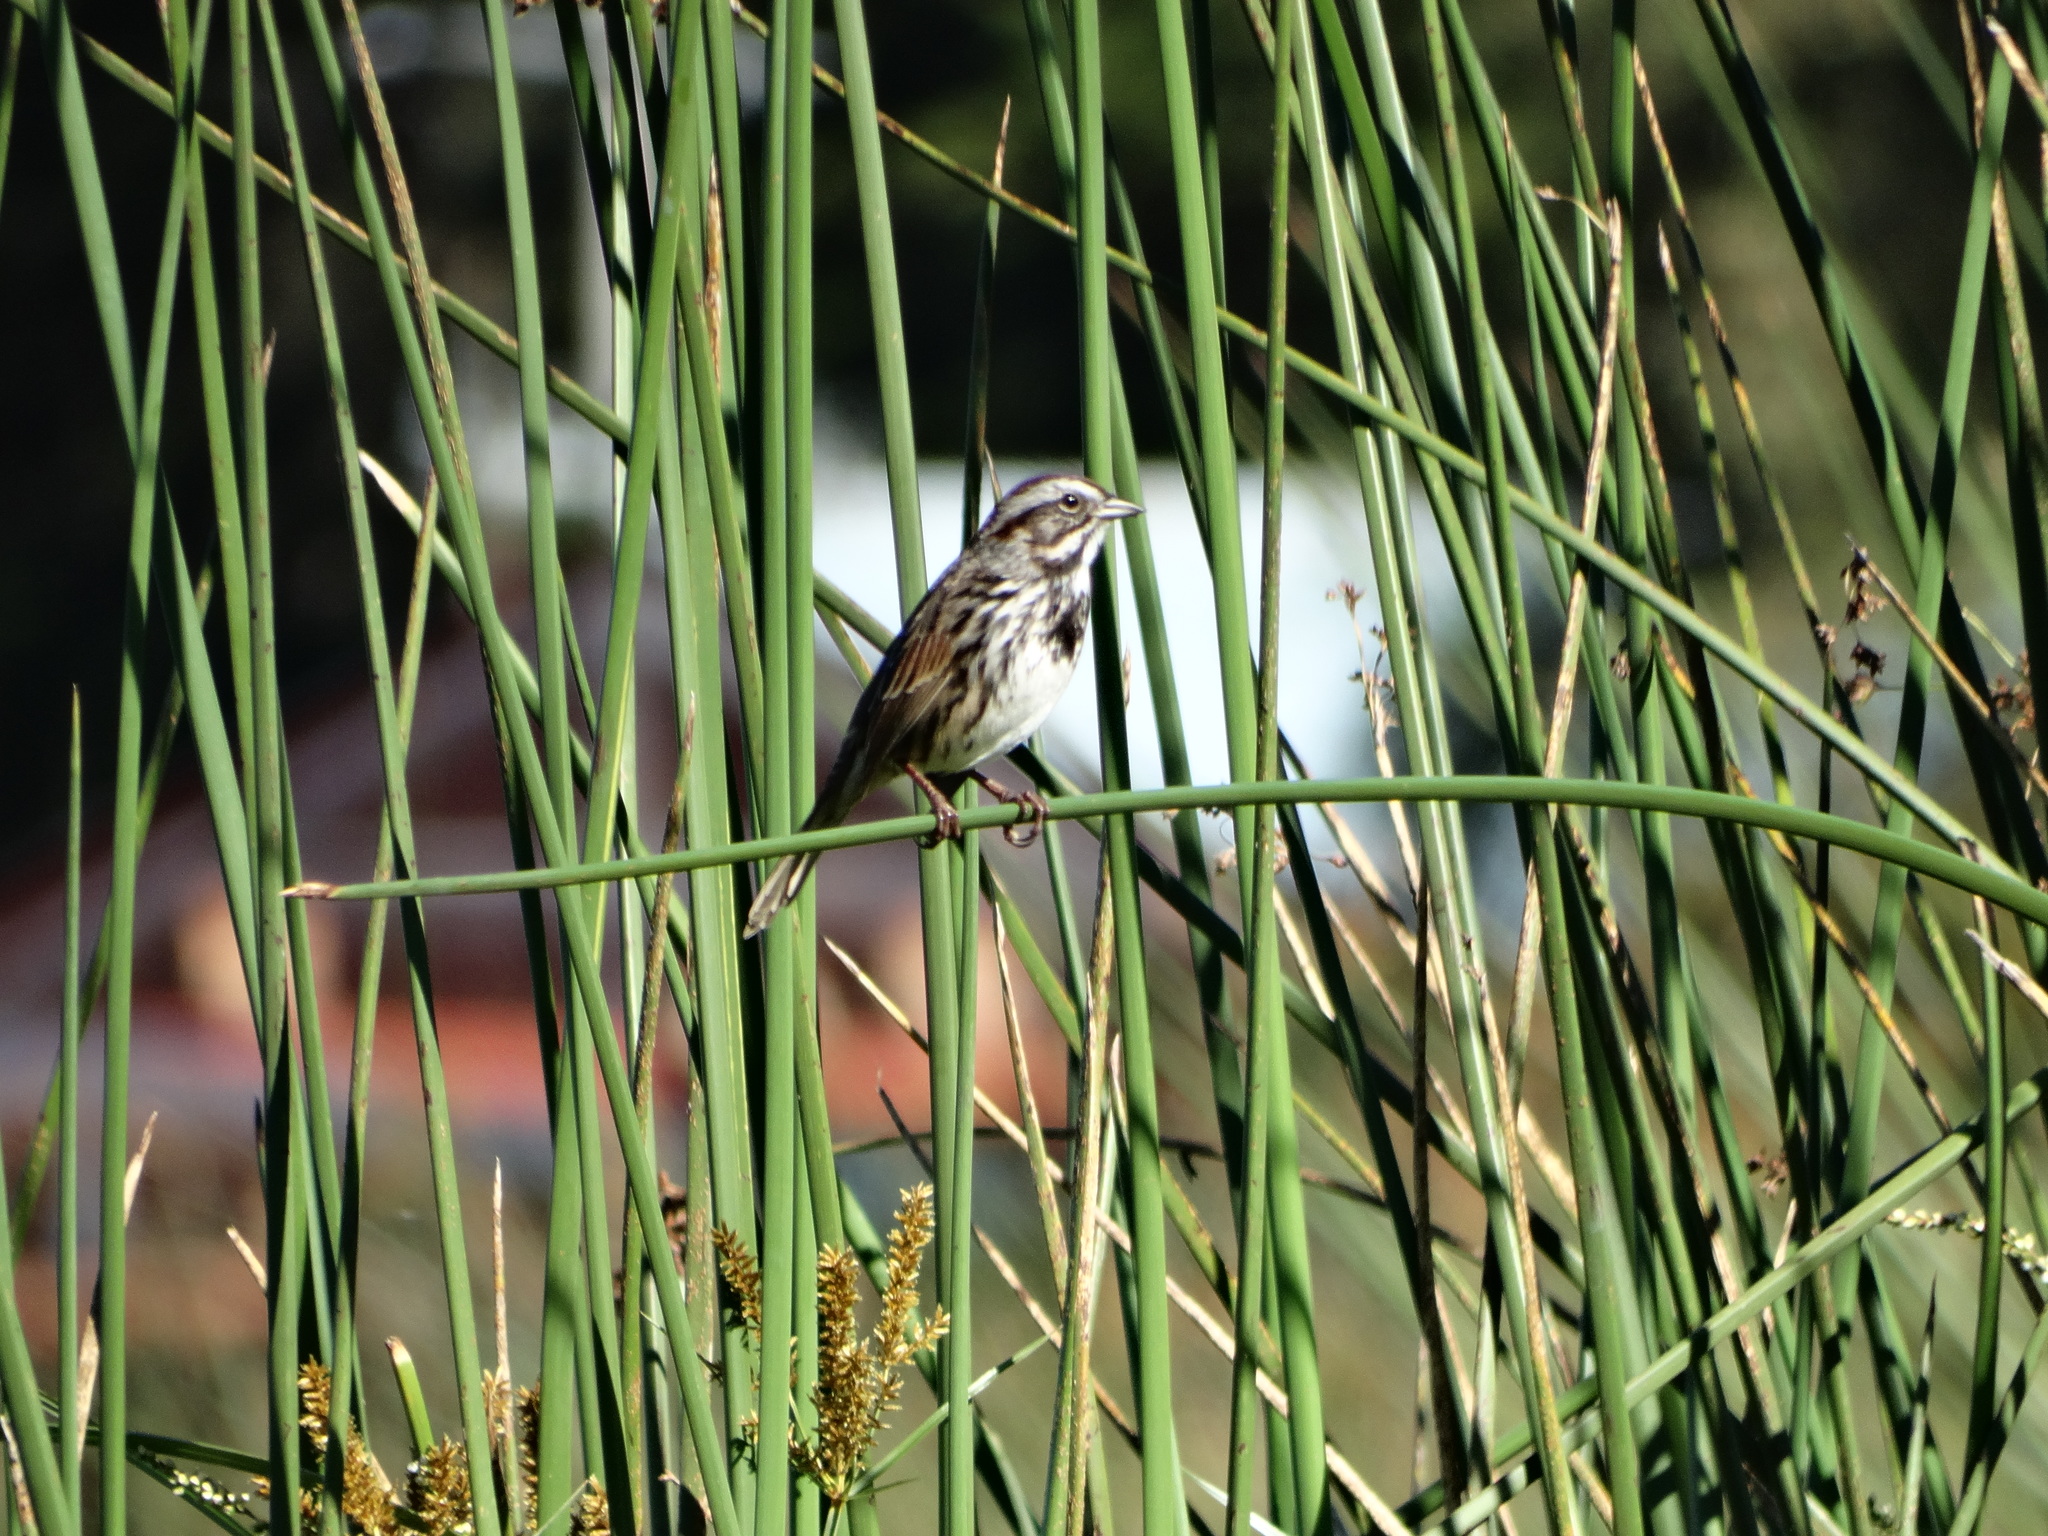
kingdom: Animalia
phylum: Chordata
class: Aves
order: Passeriformes
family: Passerellidae
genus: Melospiza
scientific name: Melospiza melodia
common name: Song sparrow
